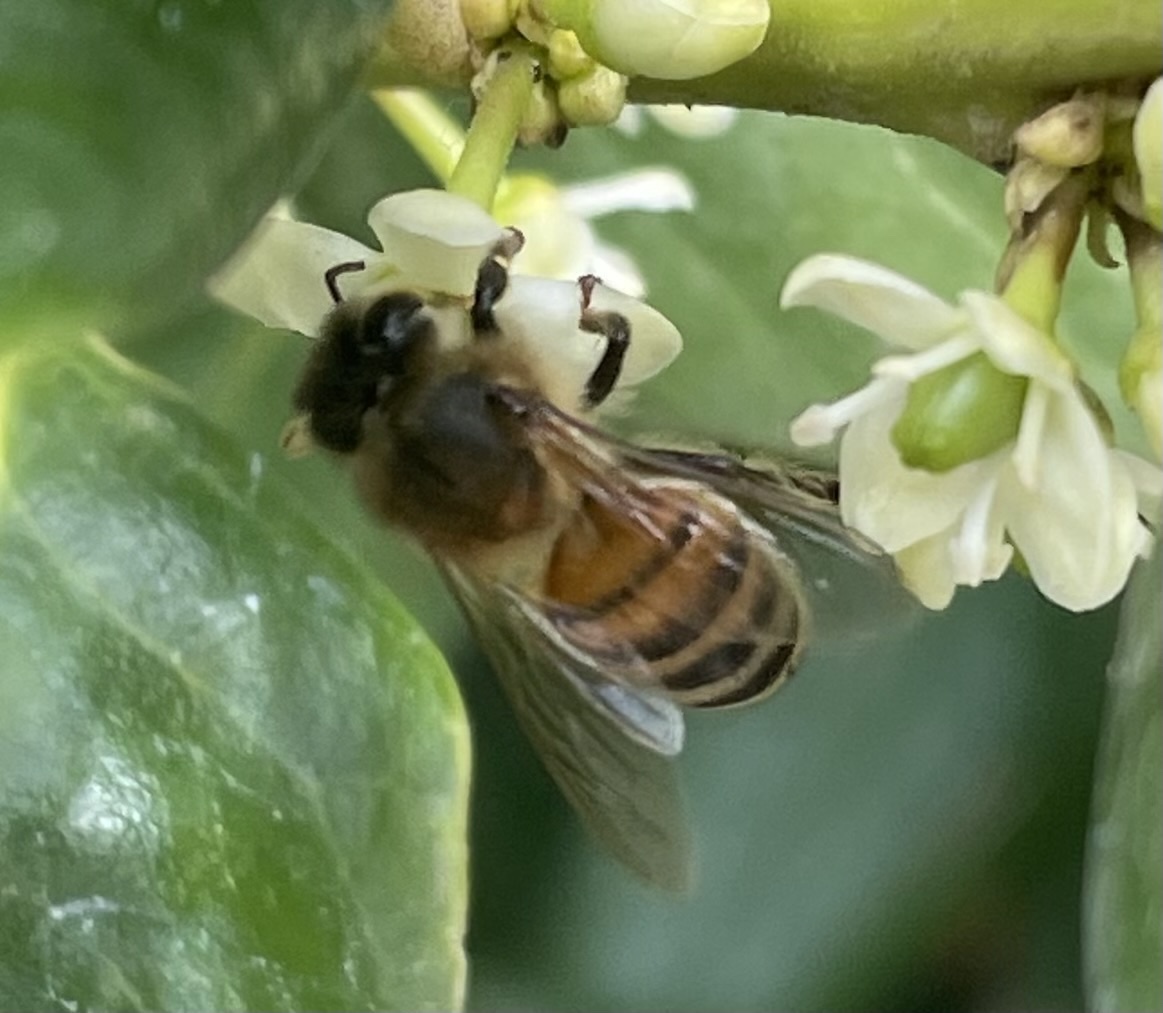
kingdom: Animalia
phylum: Arthropoda
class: Insecta
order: Hymenoptera
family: Apidae
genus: Apis
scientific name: Apis mellifera
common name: Honey bee
